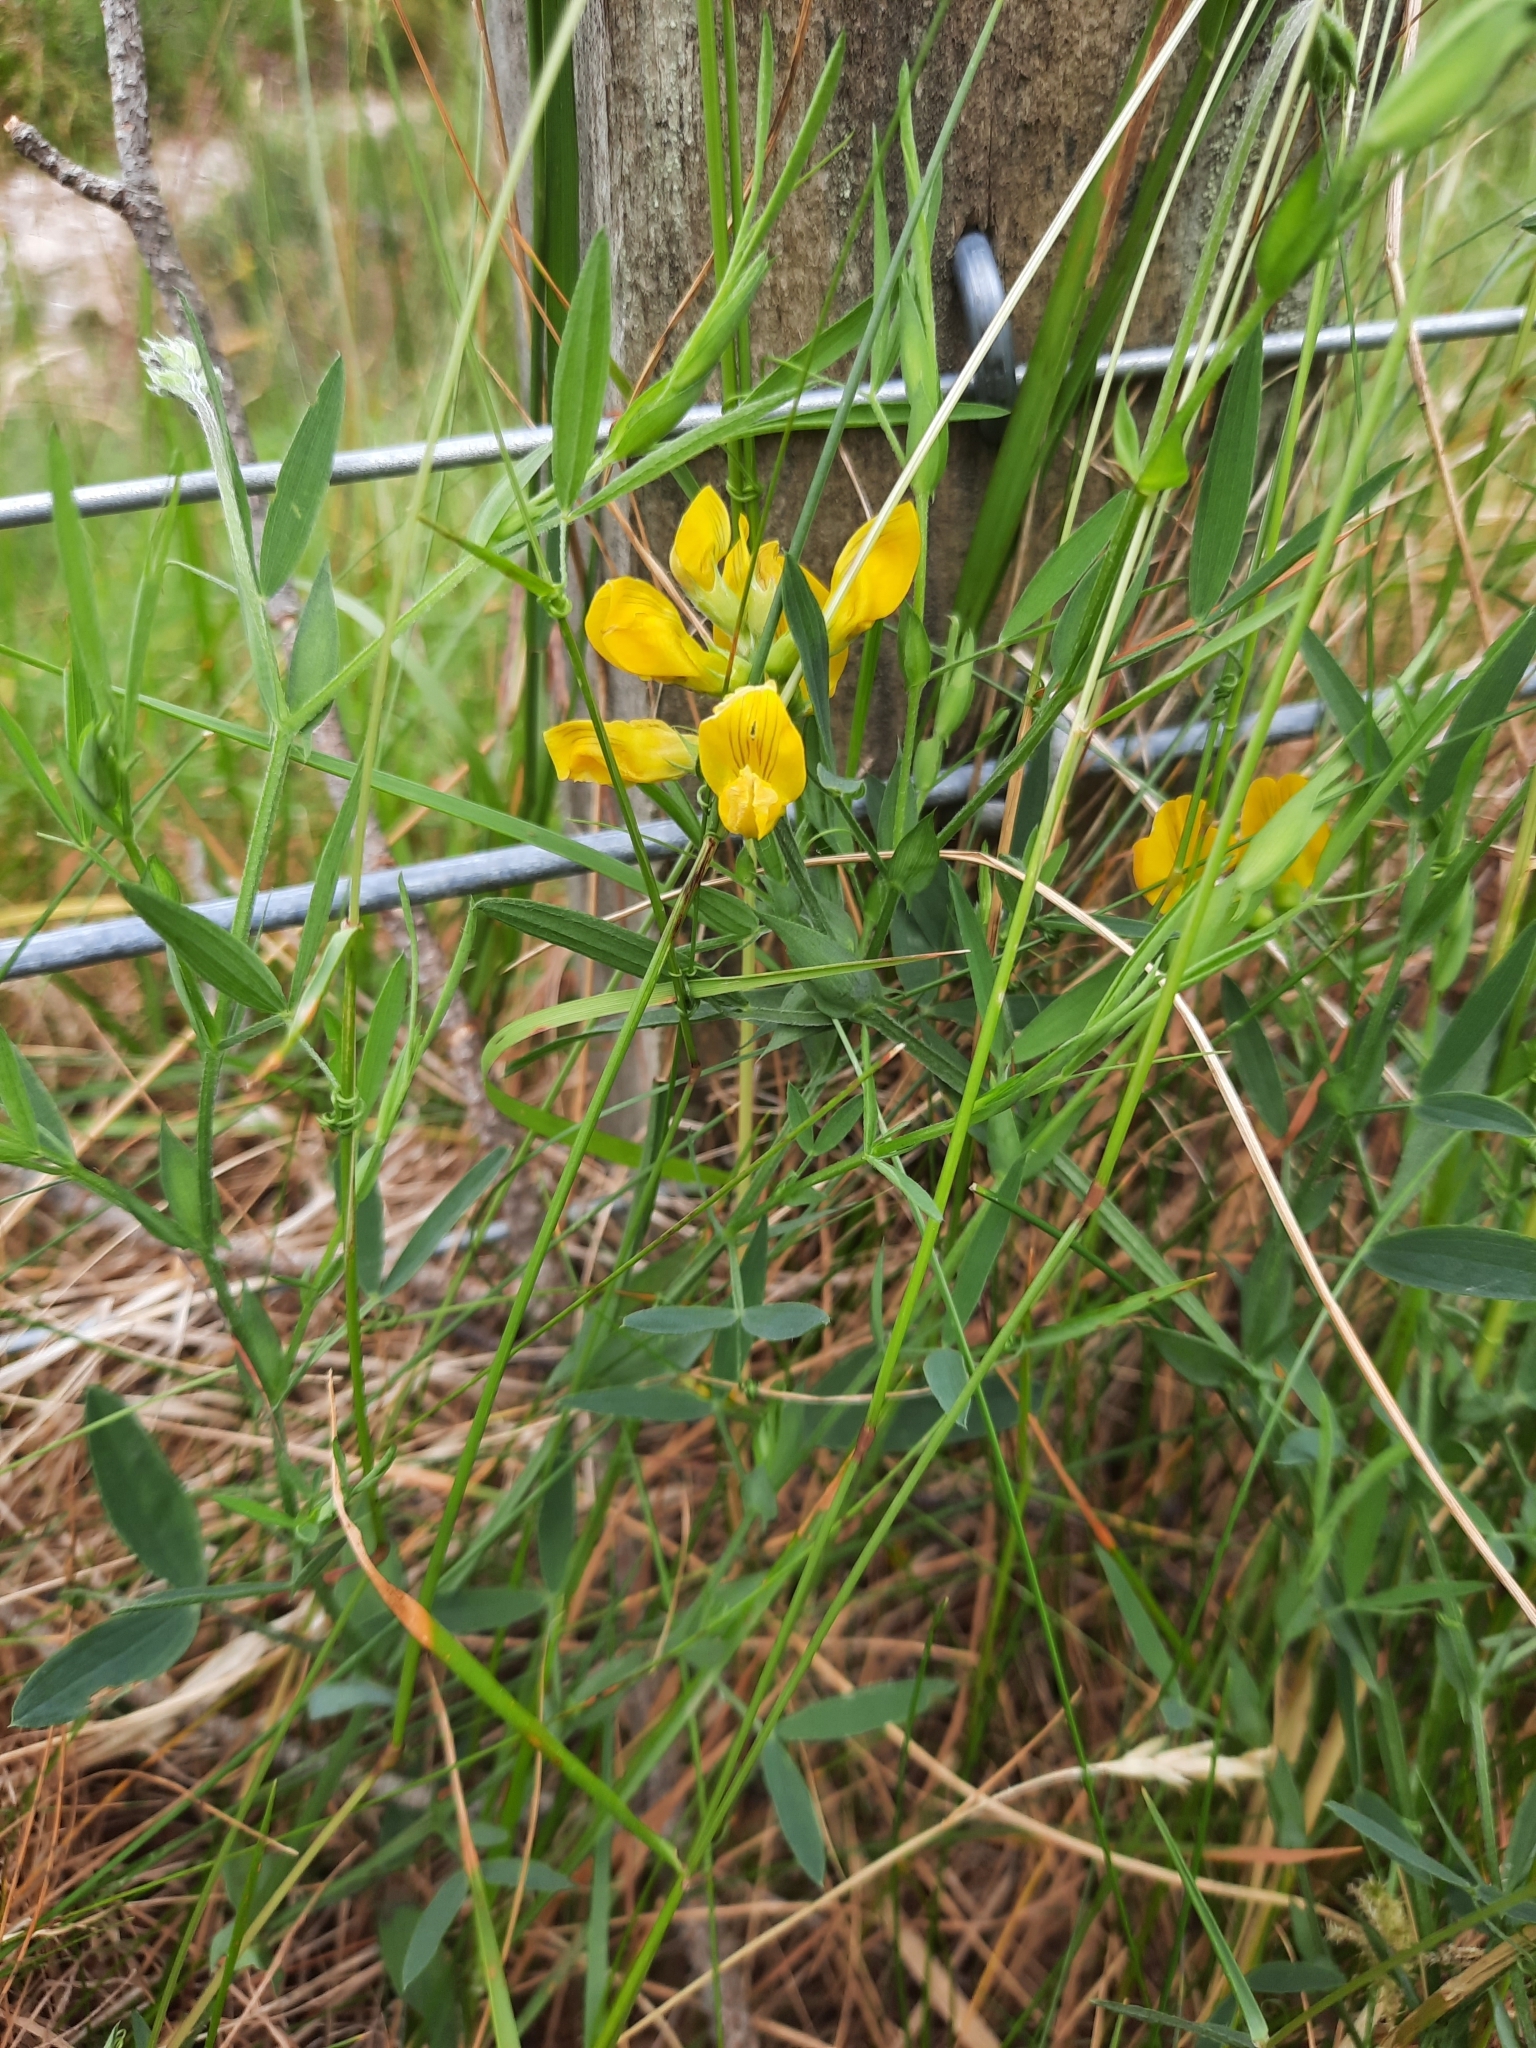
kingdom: Plantae
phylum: Tracheophyta
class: Magnoliopsida
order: Fabales
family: Fabaceae
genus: Lathyrus
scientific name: Lathyrus pratensis
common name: Meadow vetchling
